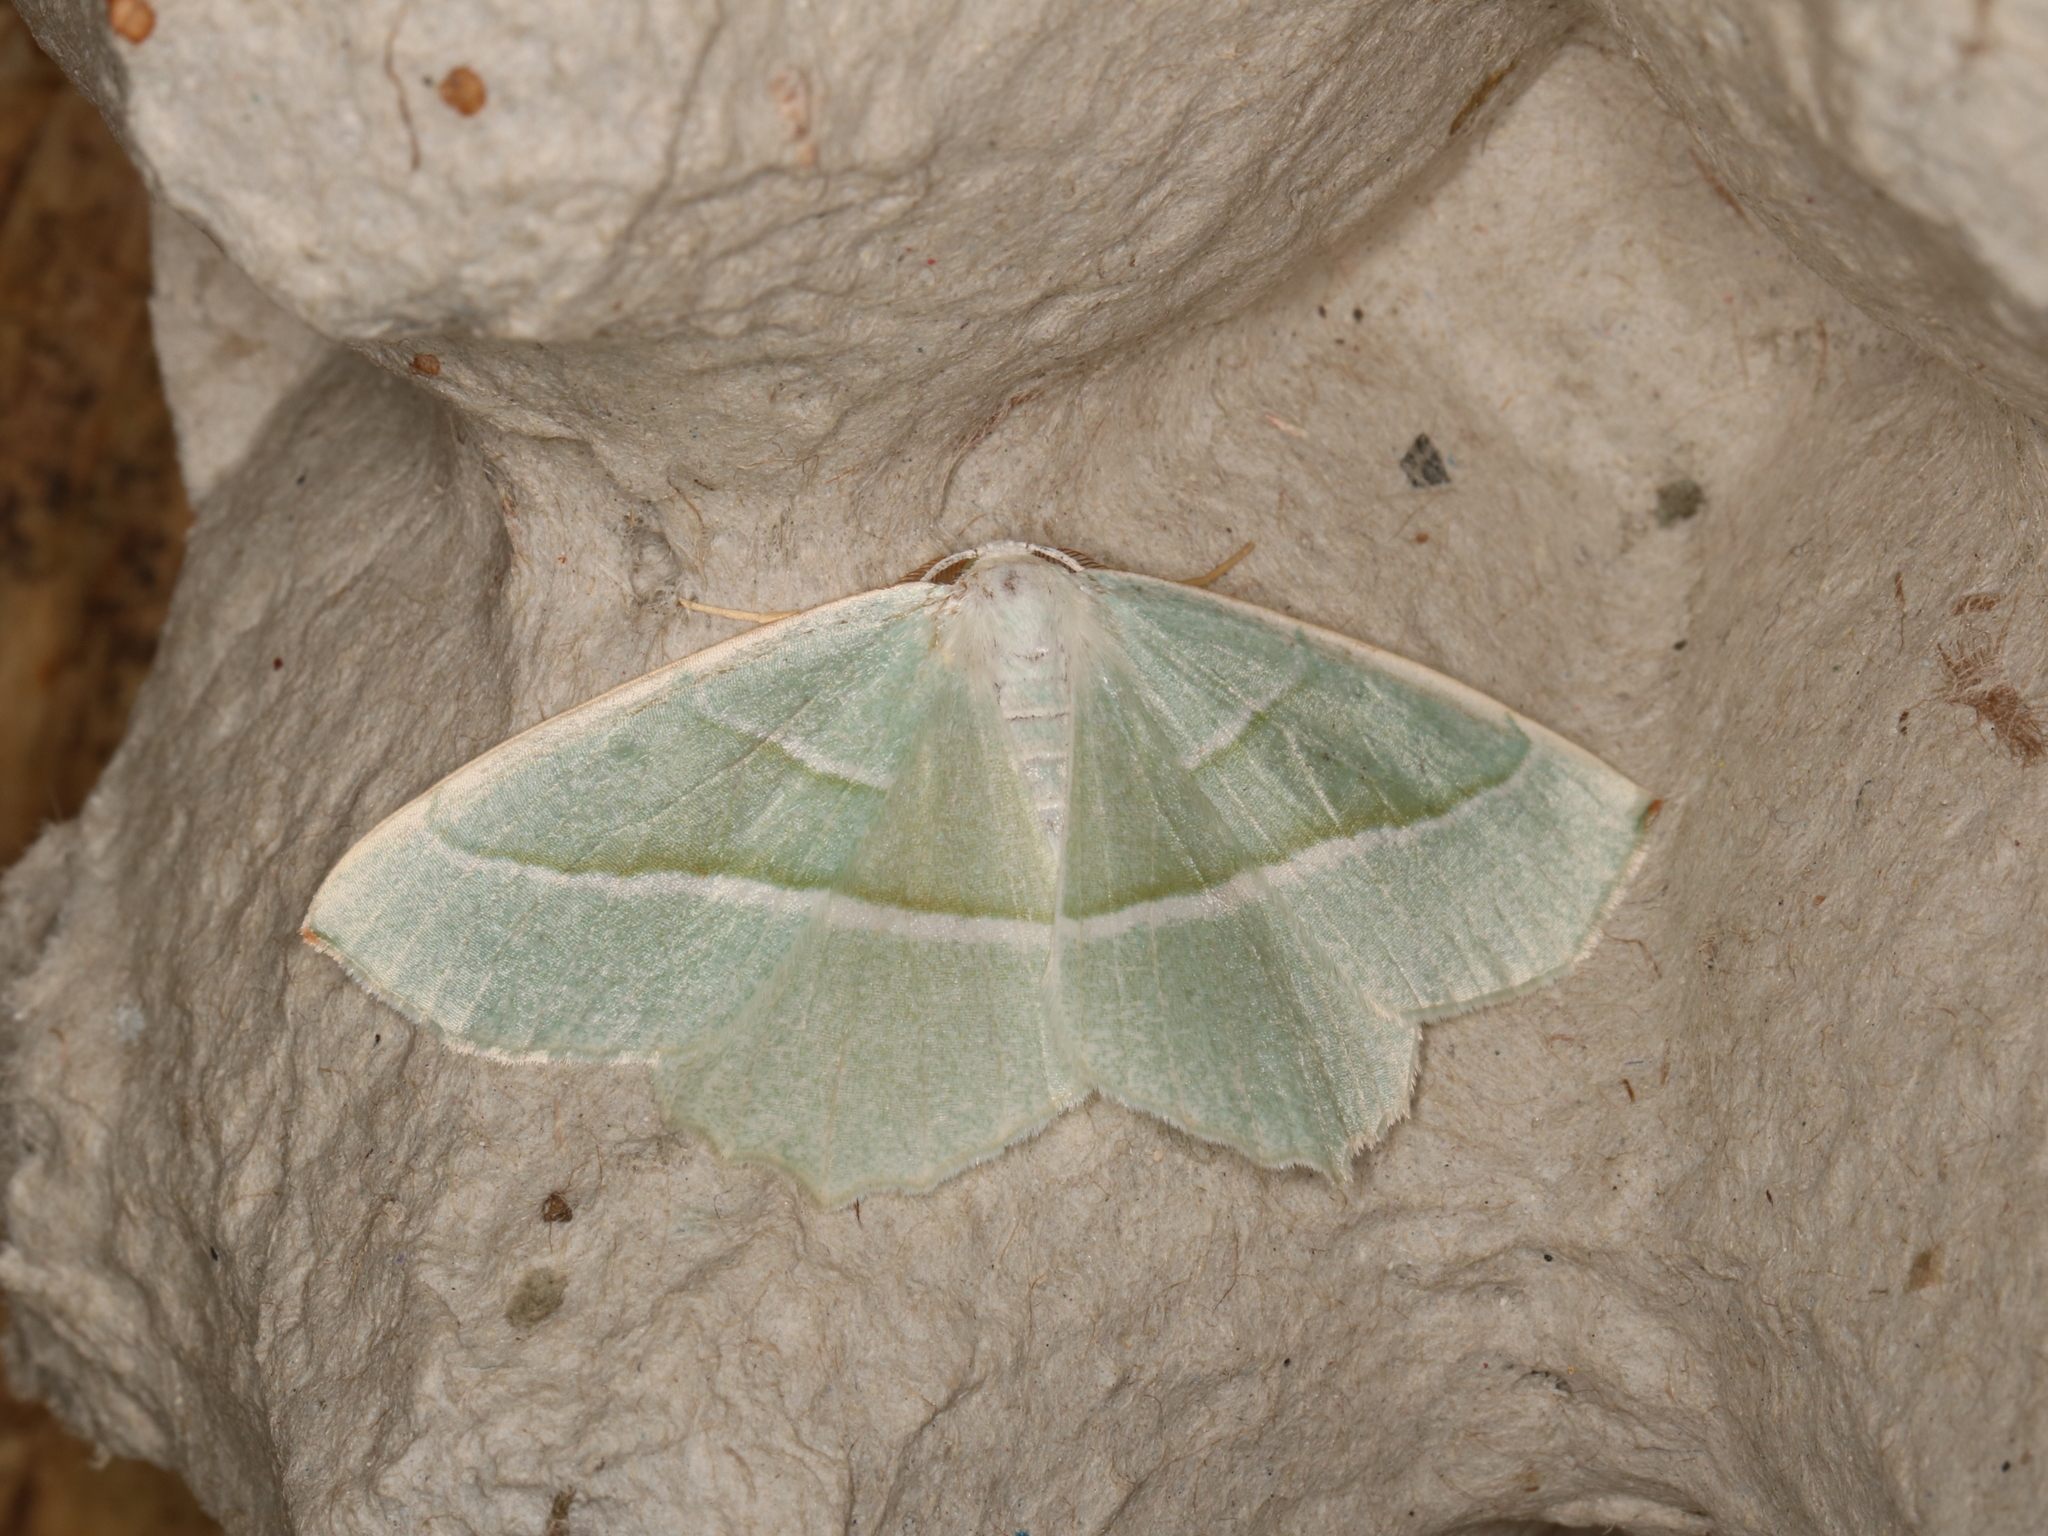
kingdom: Animalia
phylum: Arthropoda
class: Insecta
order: Lepidoptera
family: Geometridae
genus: Campaea
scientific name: Campaea margaritaria
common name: Light emerald
